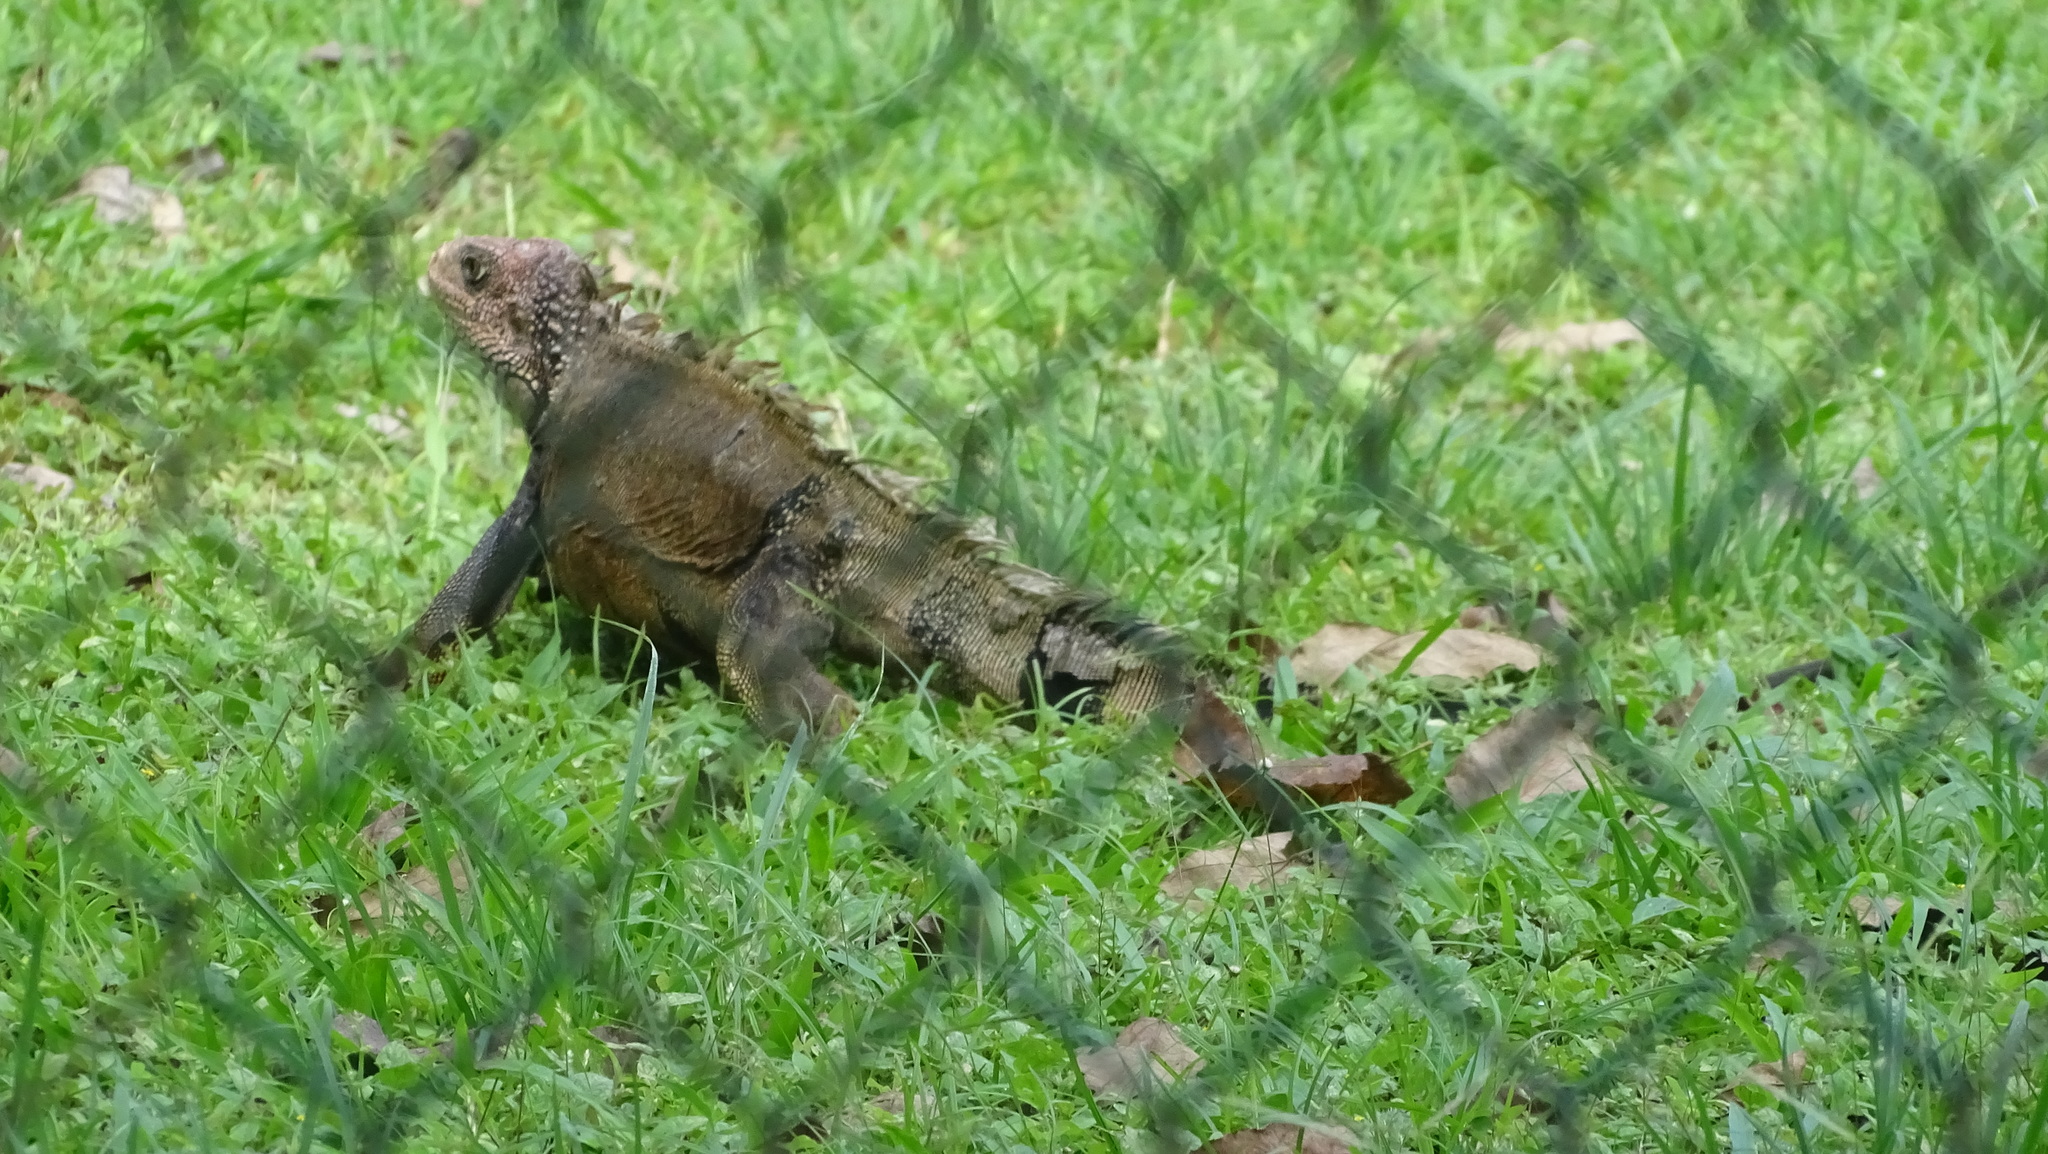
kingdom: Animalia
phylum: Chordata
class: Squamata
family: Iguanidae
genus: Iguana
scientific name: Iguana iguana
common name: Green iguana
